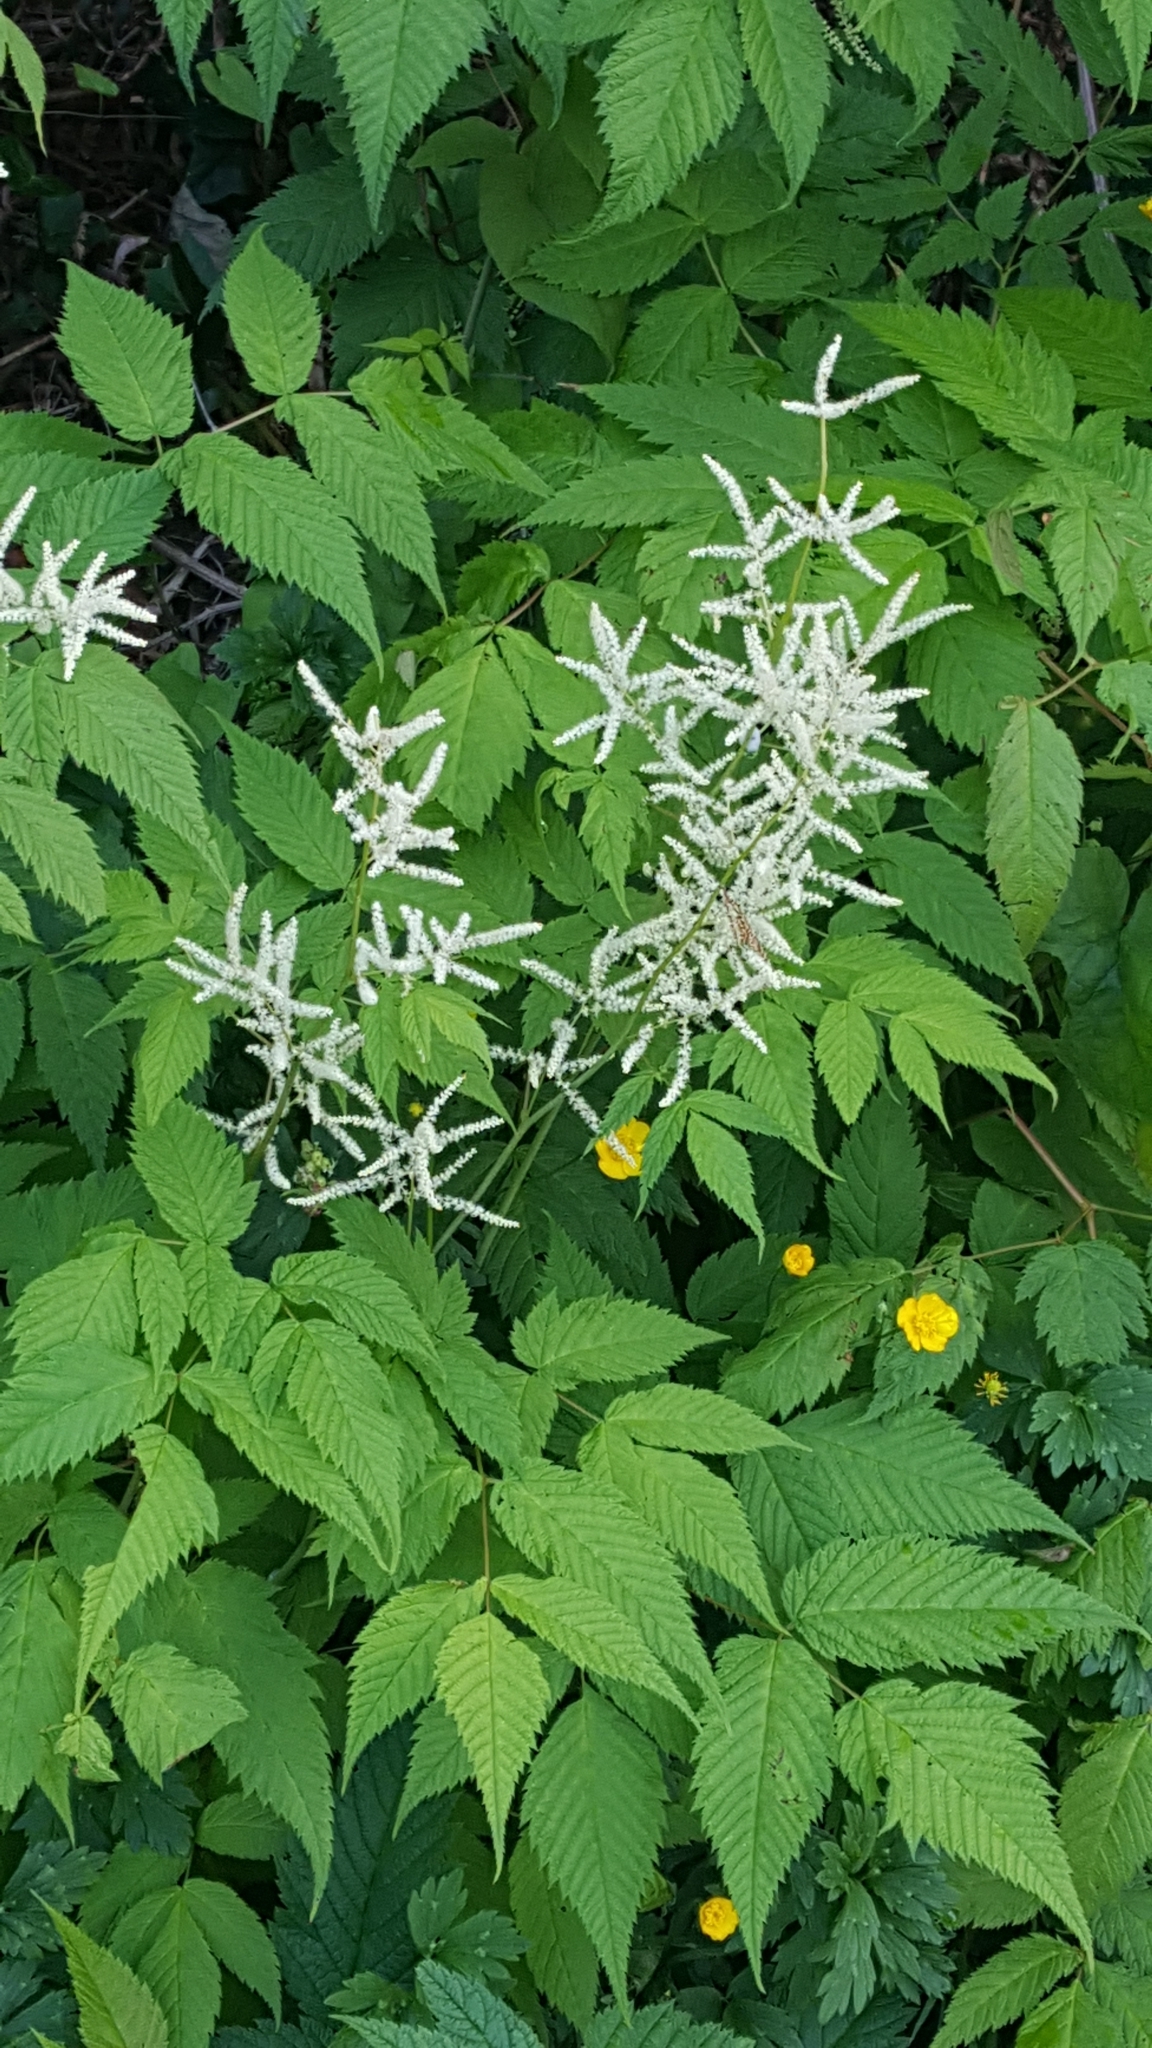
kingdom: Plantae
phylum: Tracheophyta
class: Magnoliopsida
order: Rosales
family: Rosaceae
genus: Aruncus
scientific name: Aruncus dioicus
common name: Buck's-beard
